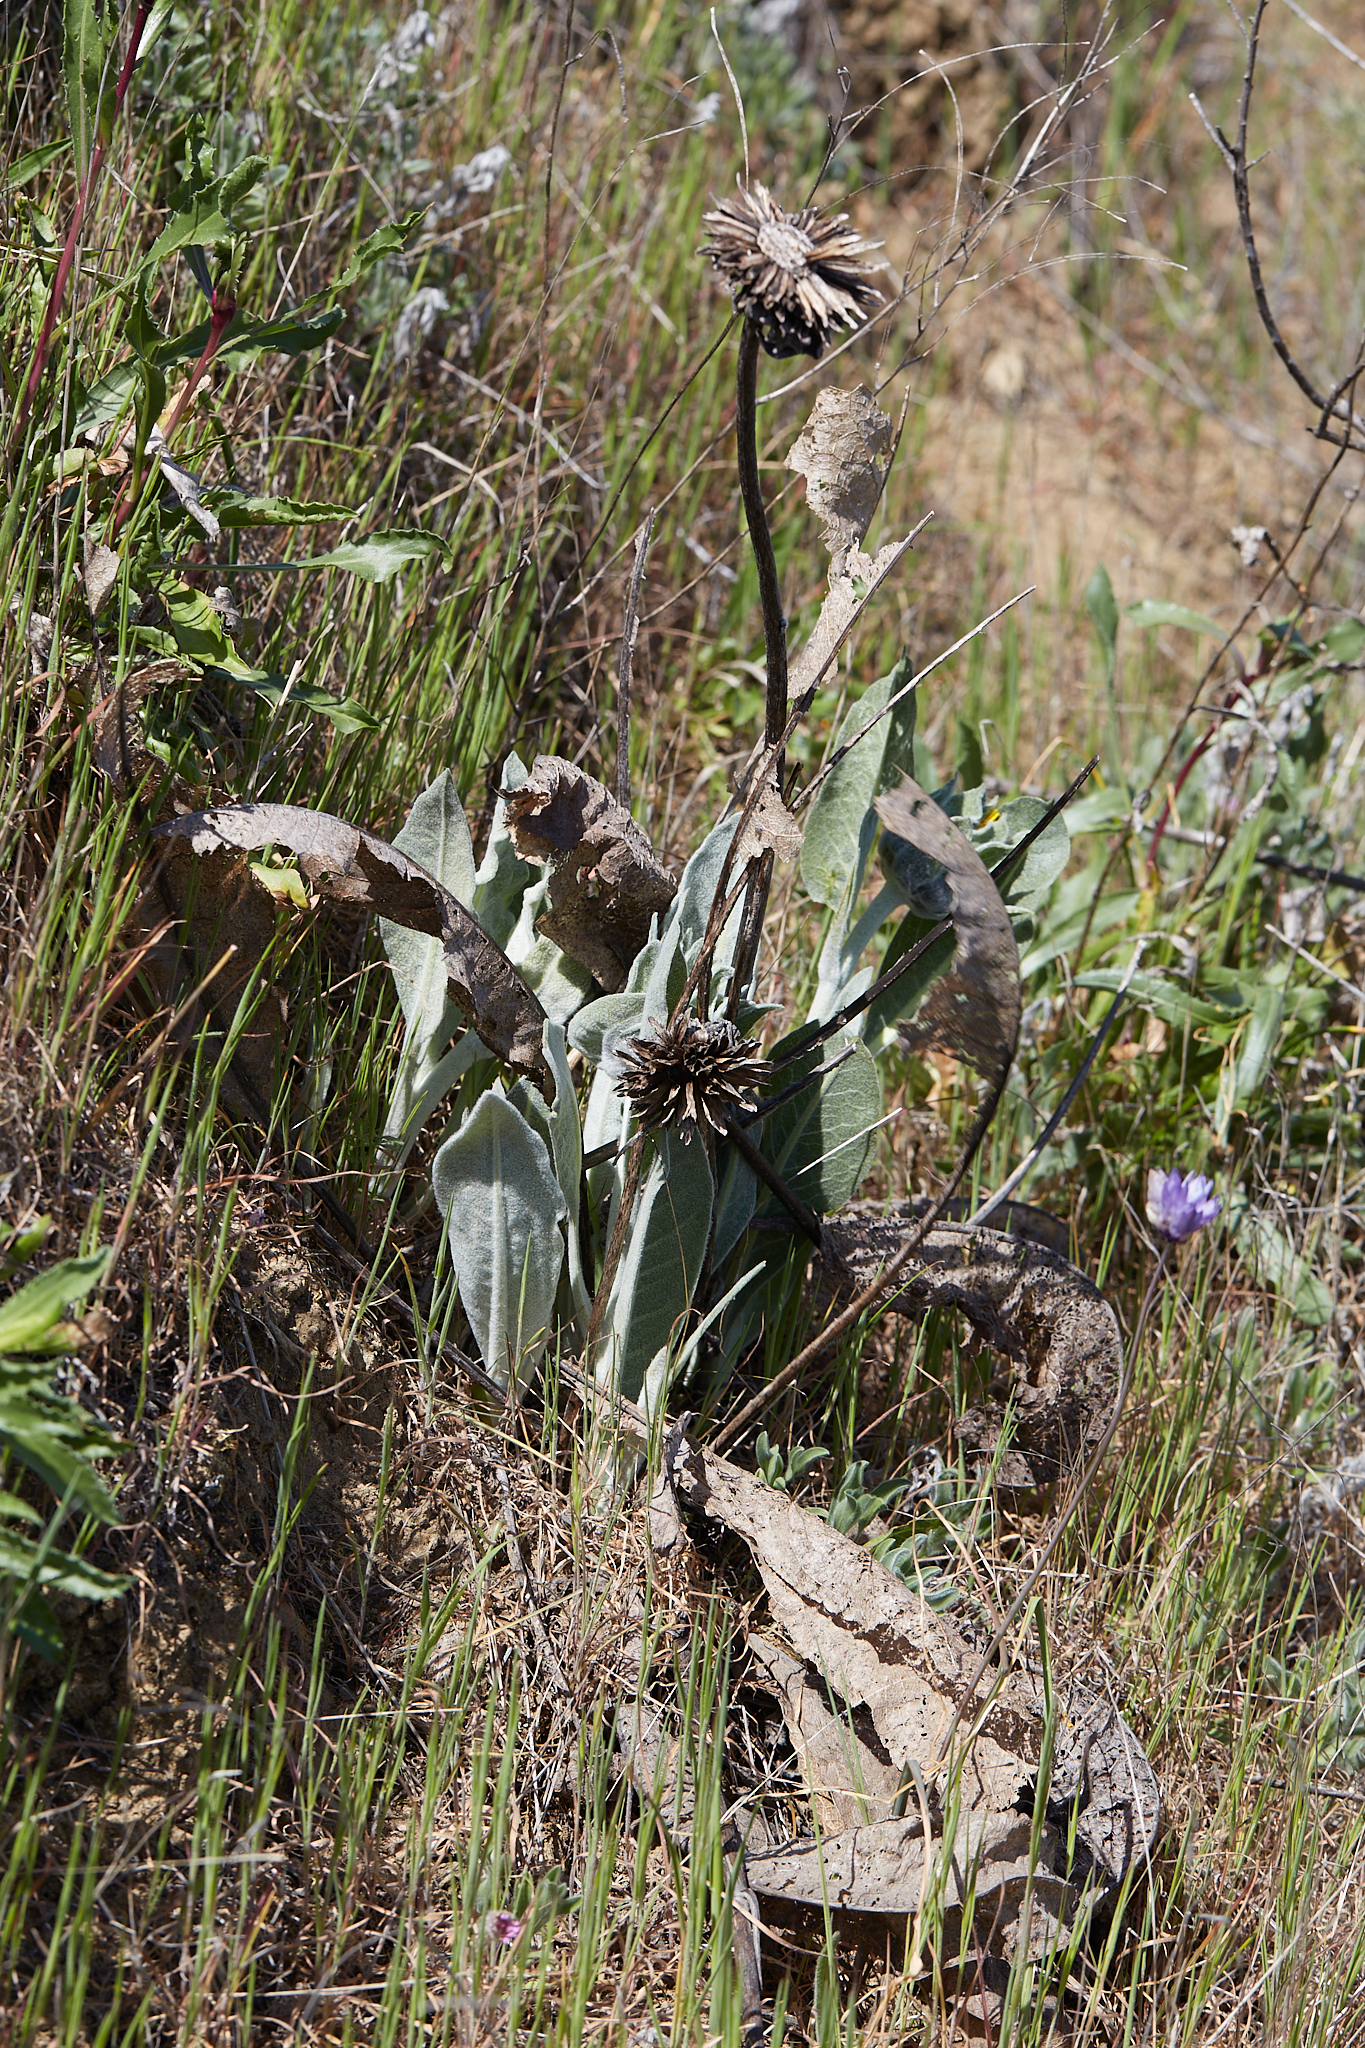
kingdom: Plantae
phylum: Tracheophyta
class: Magnoliopsida
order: Asterales
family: Asteraceae
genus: Wyethia
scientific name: Wyethia helenioides
